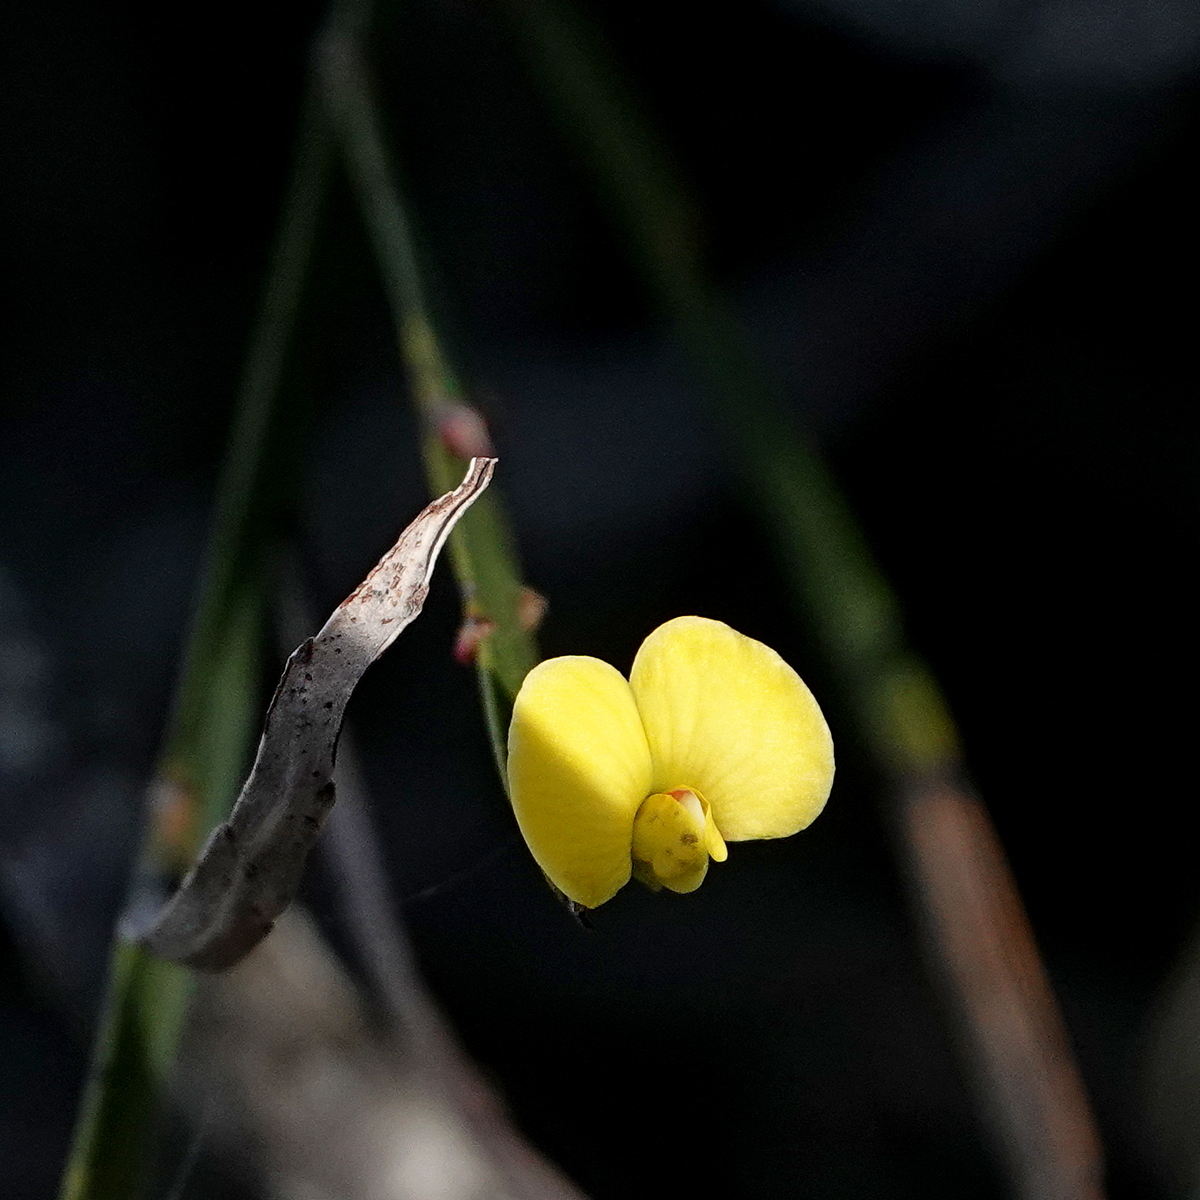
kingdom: Plantae
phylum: Tracheophyta
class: Magnoliopsida
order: Fabales
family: Fabaceae
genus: Bossiaea
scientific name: Bossiaea ensata
